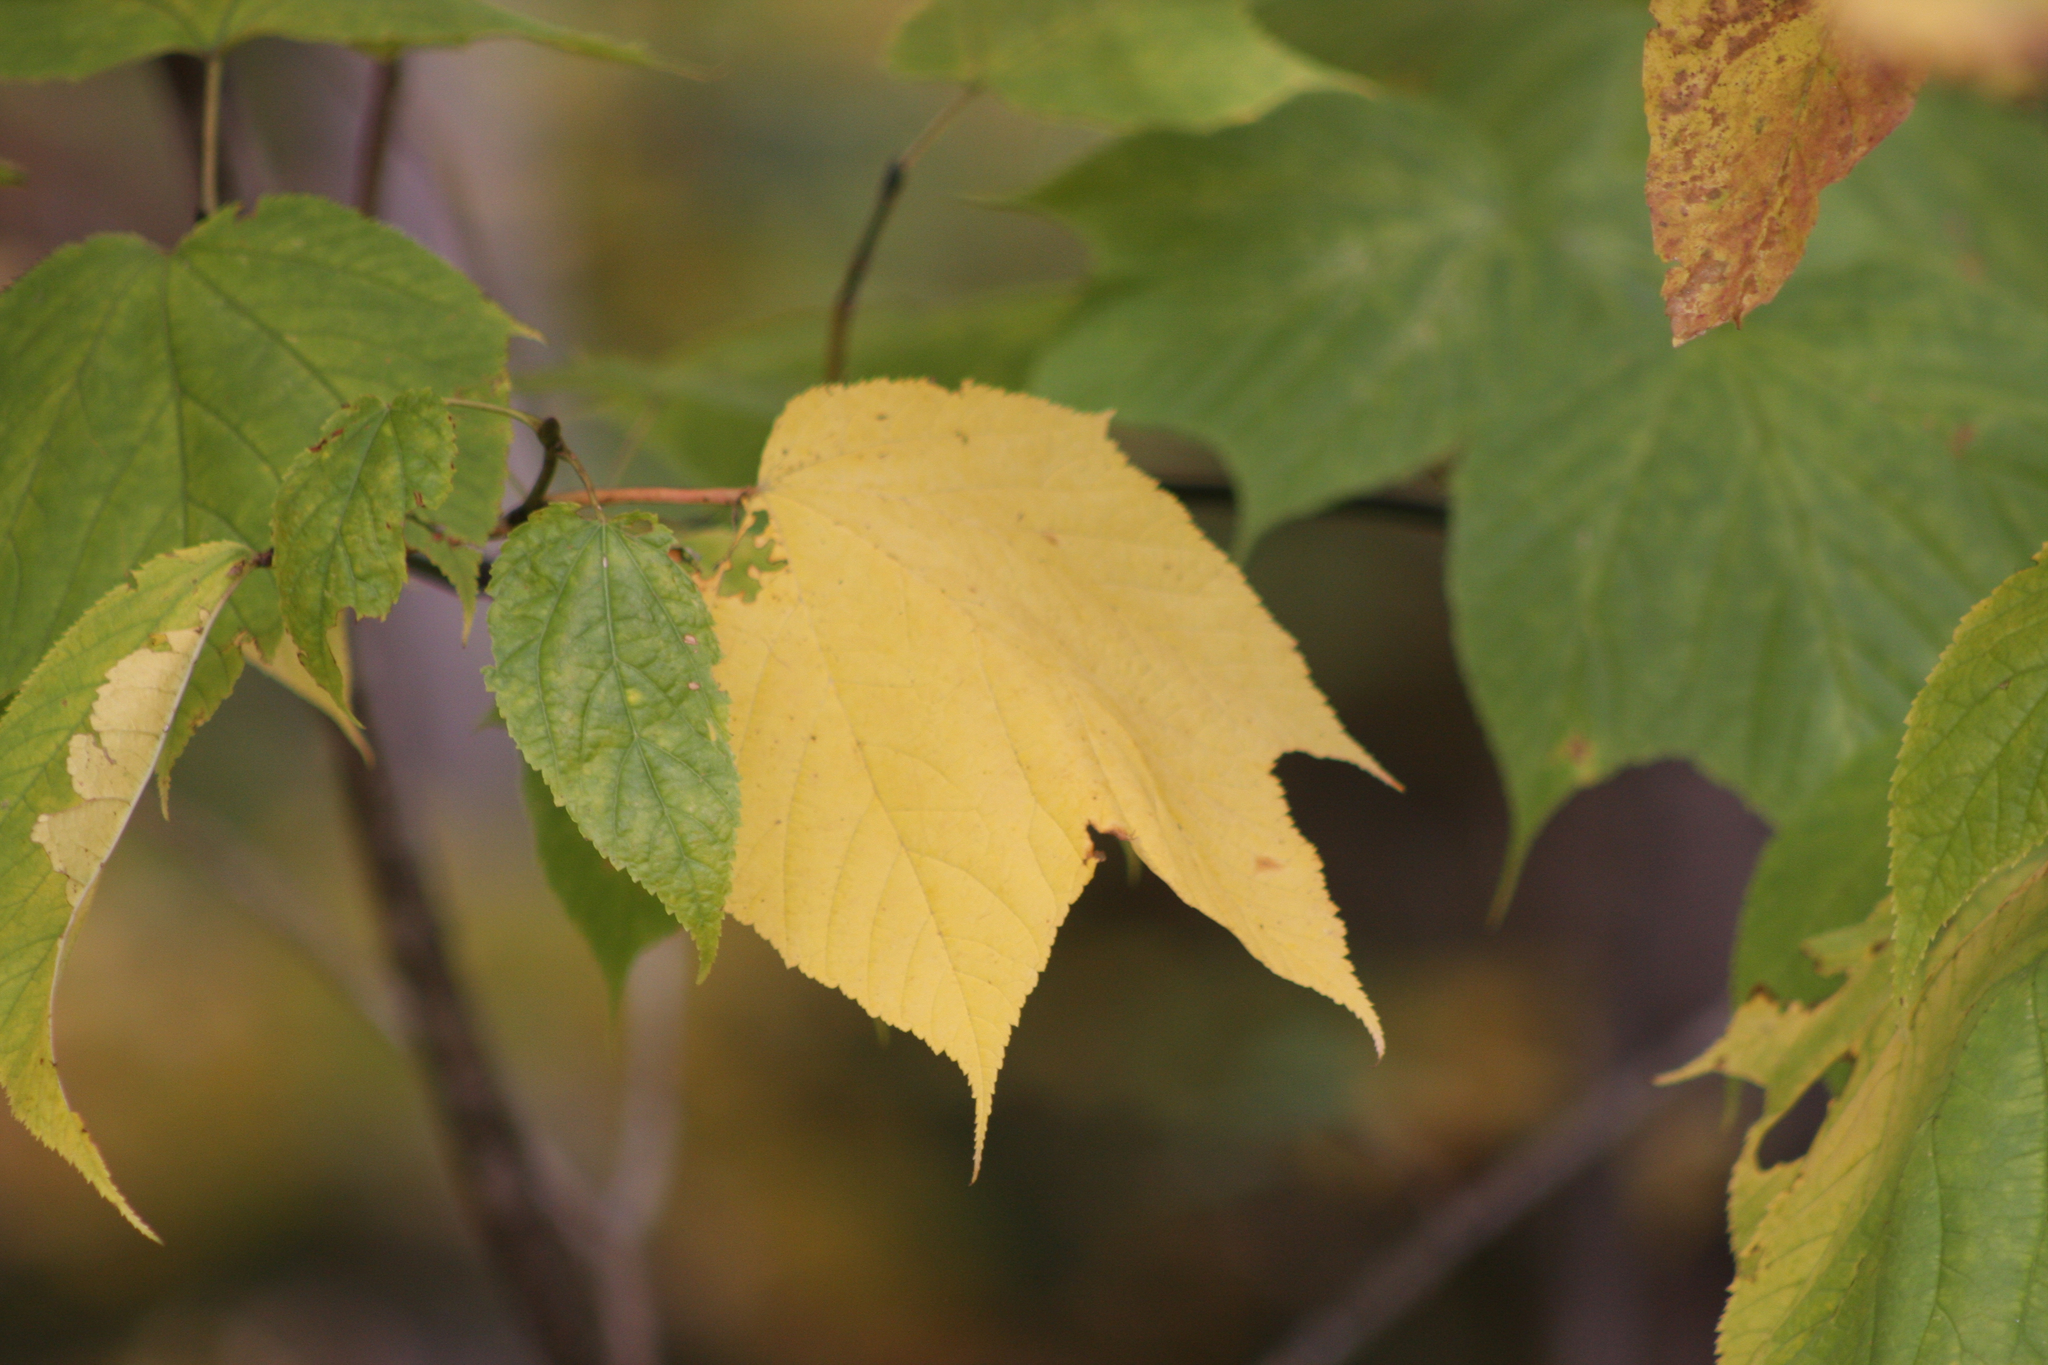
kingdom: Plantae
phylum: Tracheophyta
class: Magnoliopsida
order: Sapindales
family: Sapindaceae
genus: Acer
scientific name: Acer pensylvanicum
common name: Moosewood
